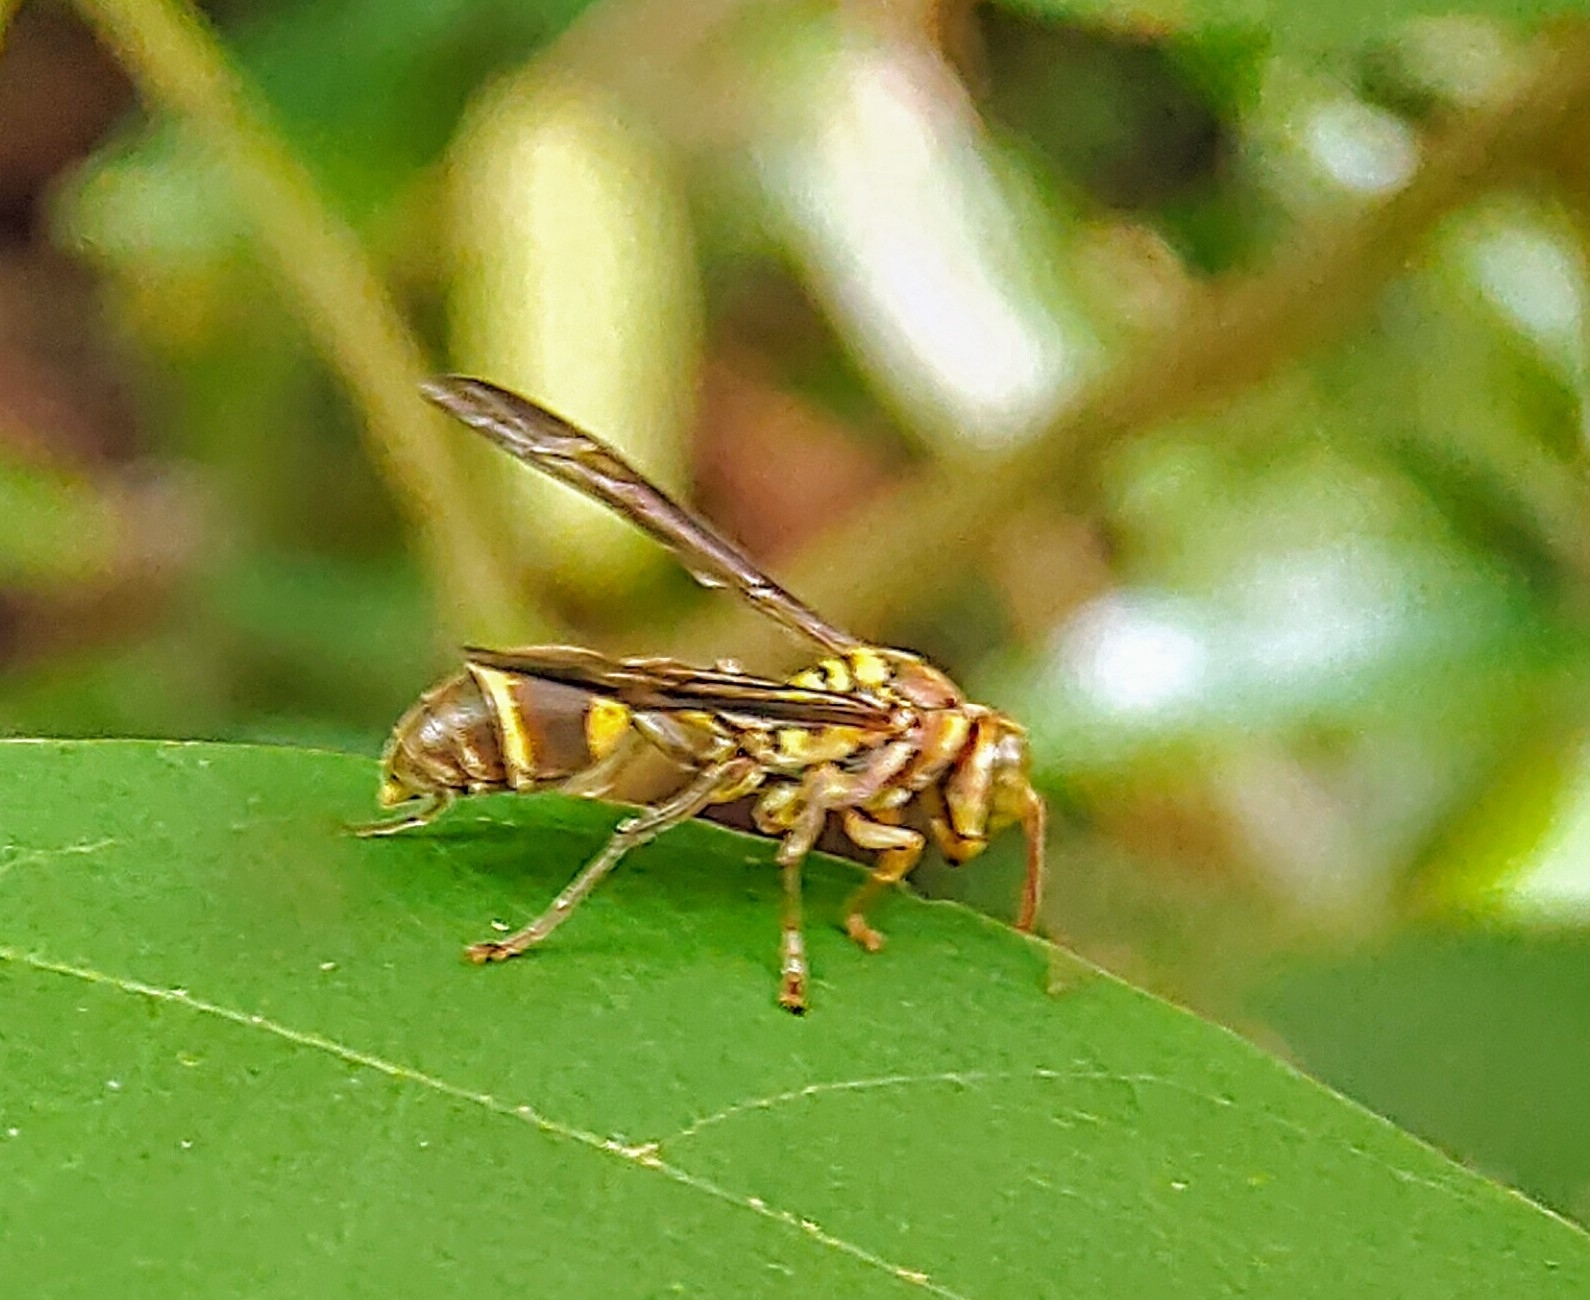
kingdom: Animalia
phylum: Arthropoda
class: Insecta
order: Hymenoptera
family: Vespidae
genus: Ropalidia
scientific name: Ropalidia stigma
